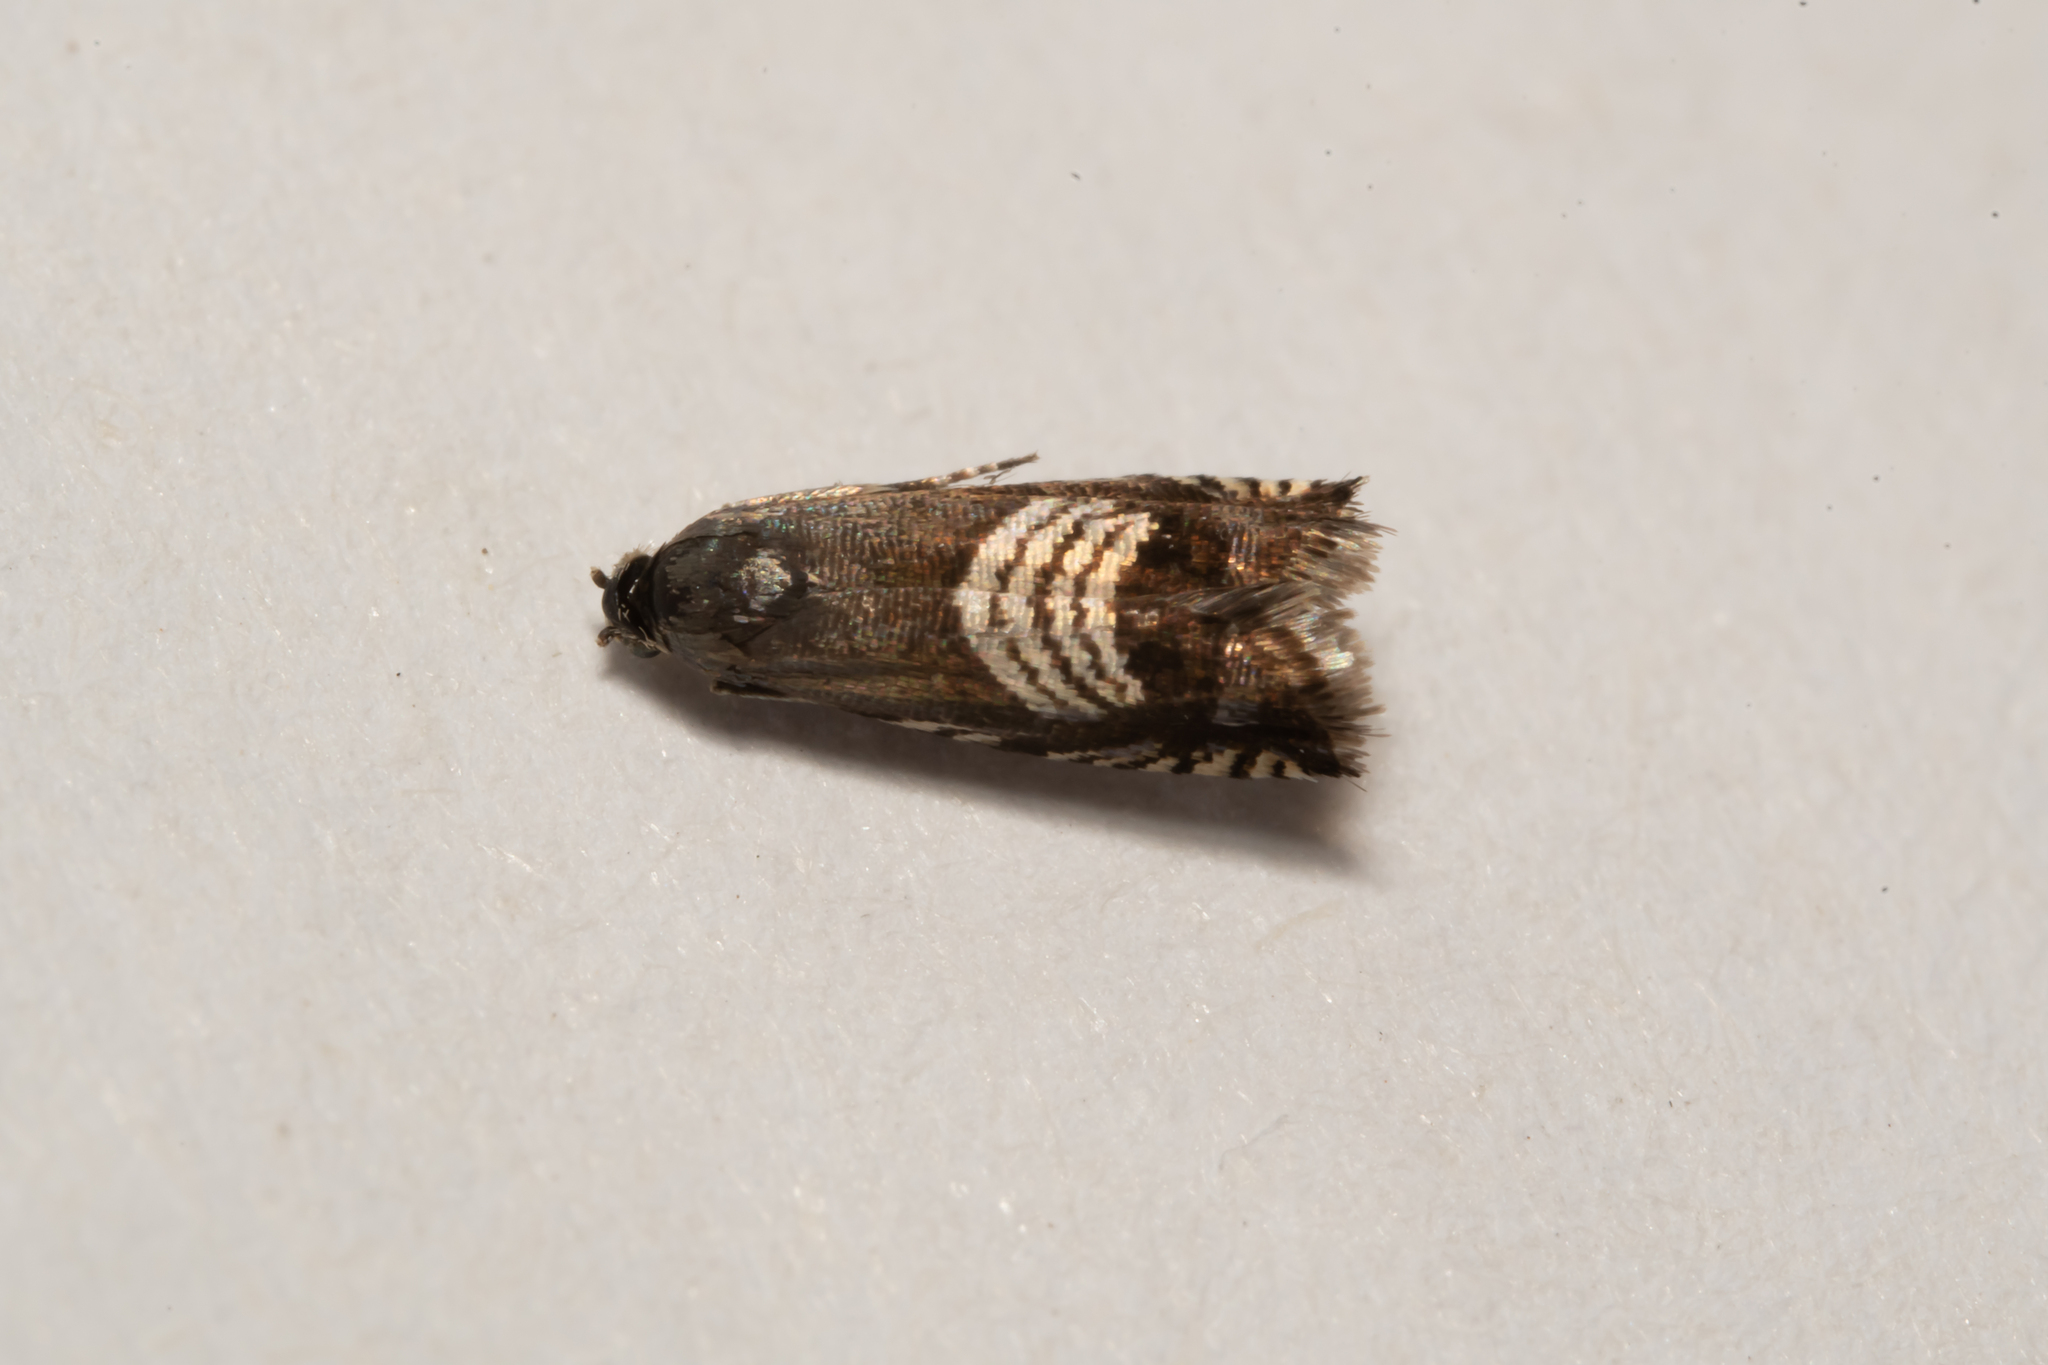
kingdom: Animalia
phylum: Arthropoda
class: Insecta
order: Lepidoptera
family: Tortricidae
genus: Grapholita
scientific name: Grapholita compositella
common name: Triple-stripe piercer
